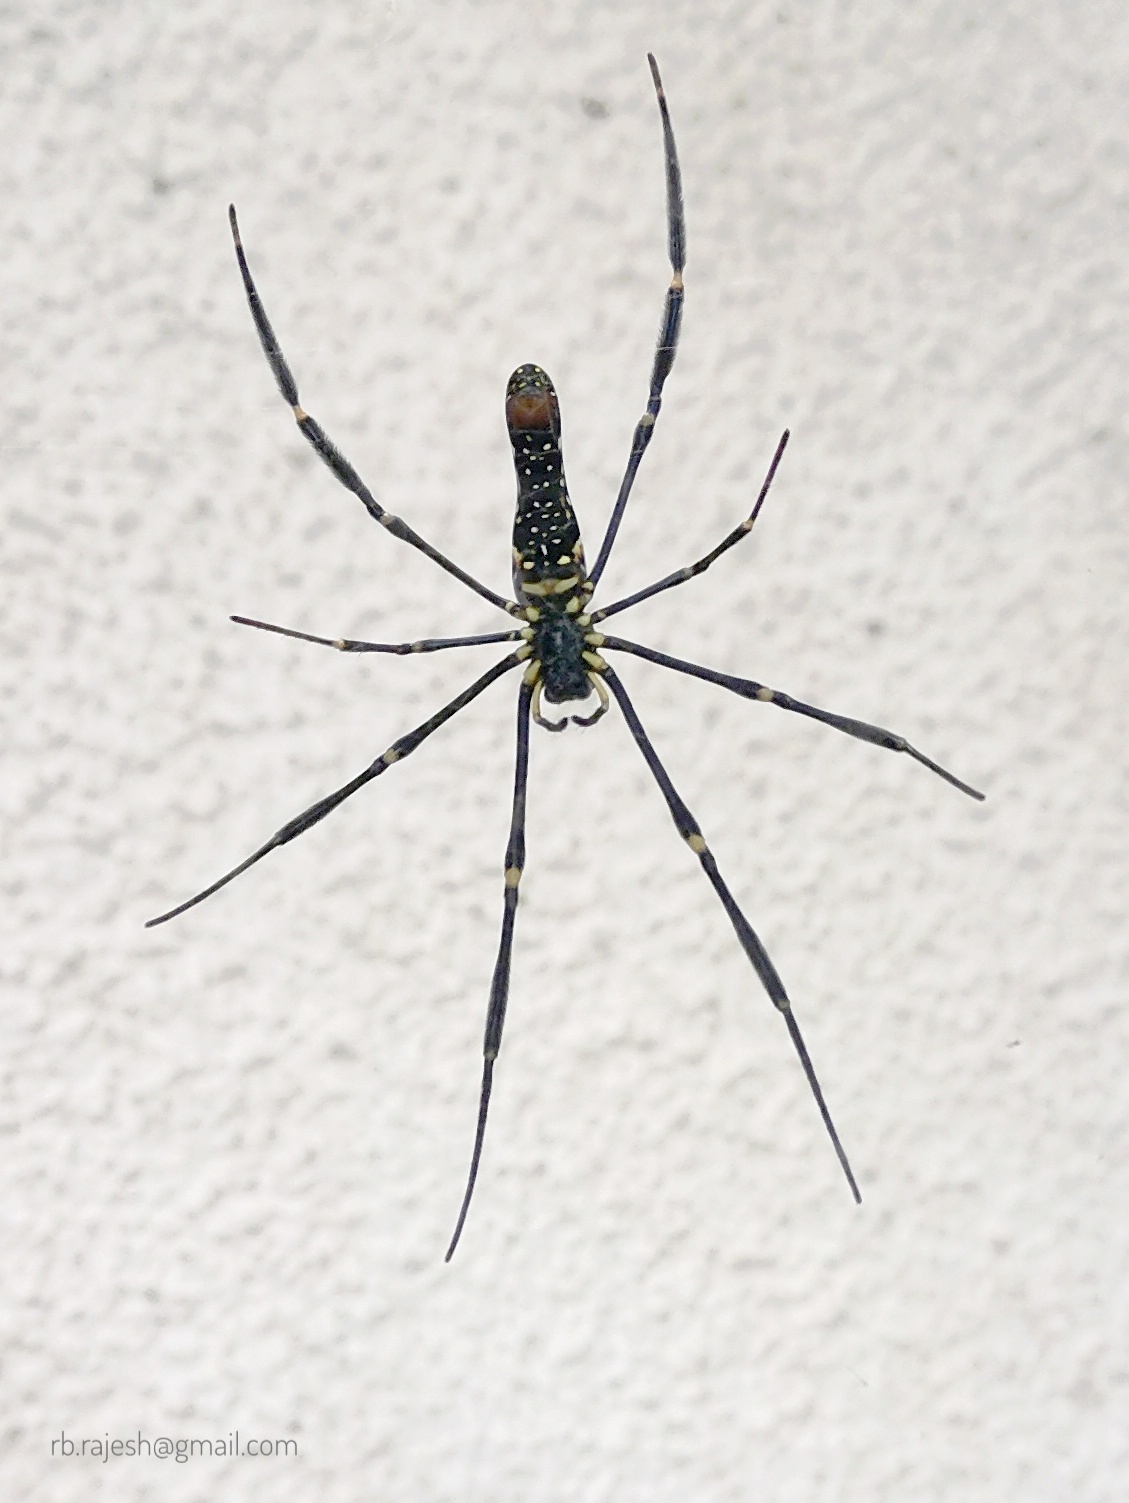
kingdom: Animalia
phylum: Arthropoda
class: Arachnida
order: Araneae
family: Araneidae
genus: Nephila
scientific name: Nephila pilipes
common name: Giant golden orb weaver
